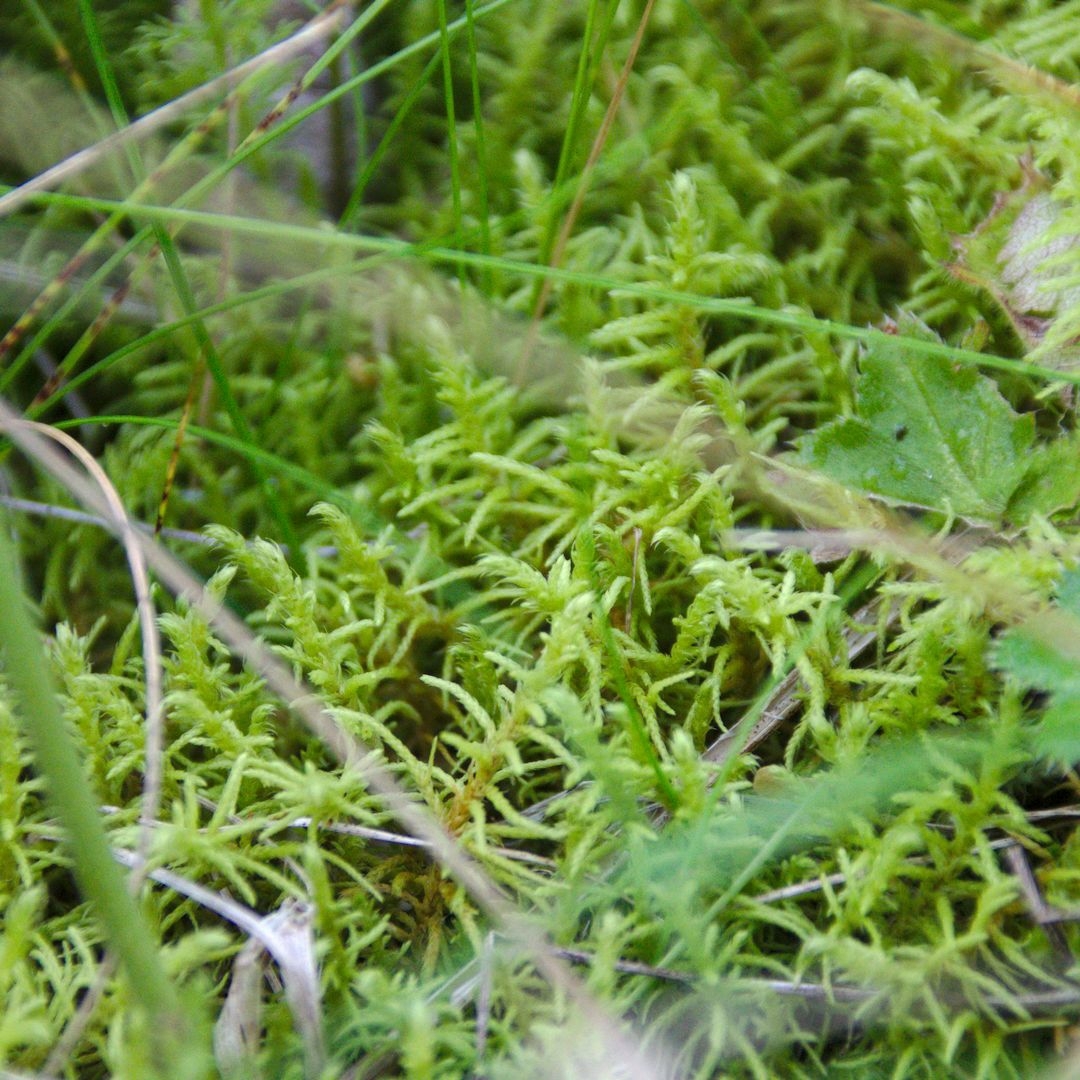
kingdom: Plantae
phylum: Bryophyta
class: Bryopsida
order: Hypnales
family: Thuidiaceae
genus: Abietinella
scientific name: Abietinella abietina
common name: Wiry fern moss
